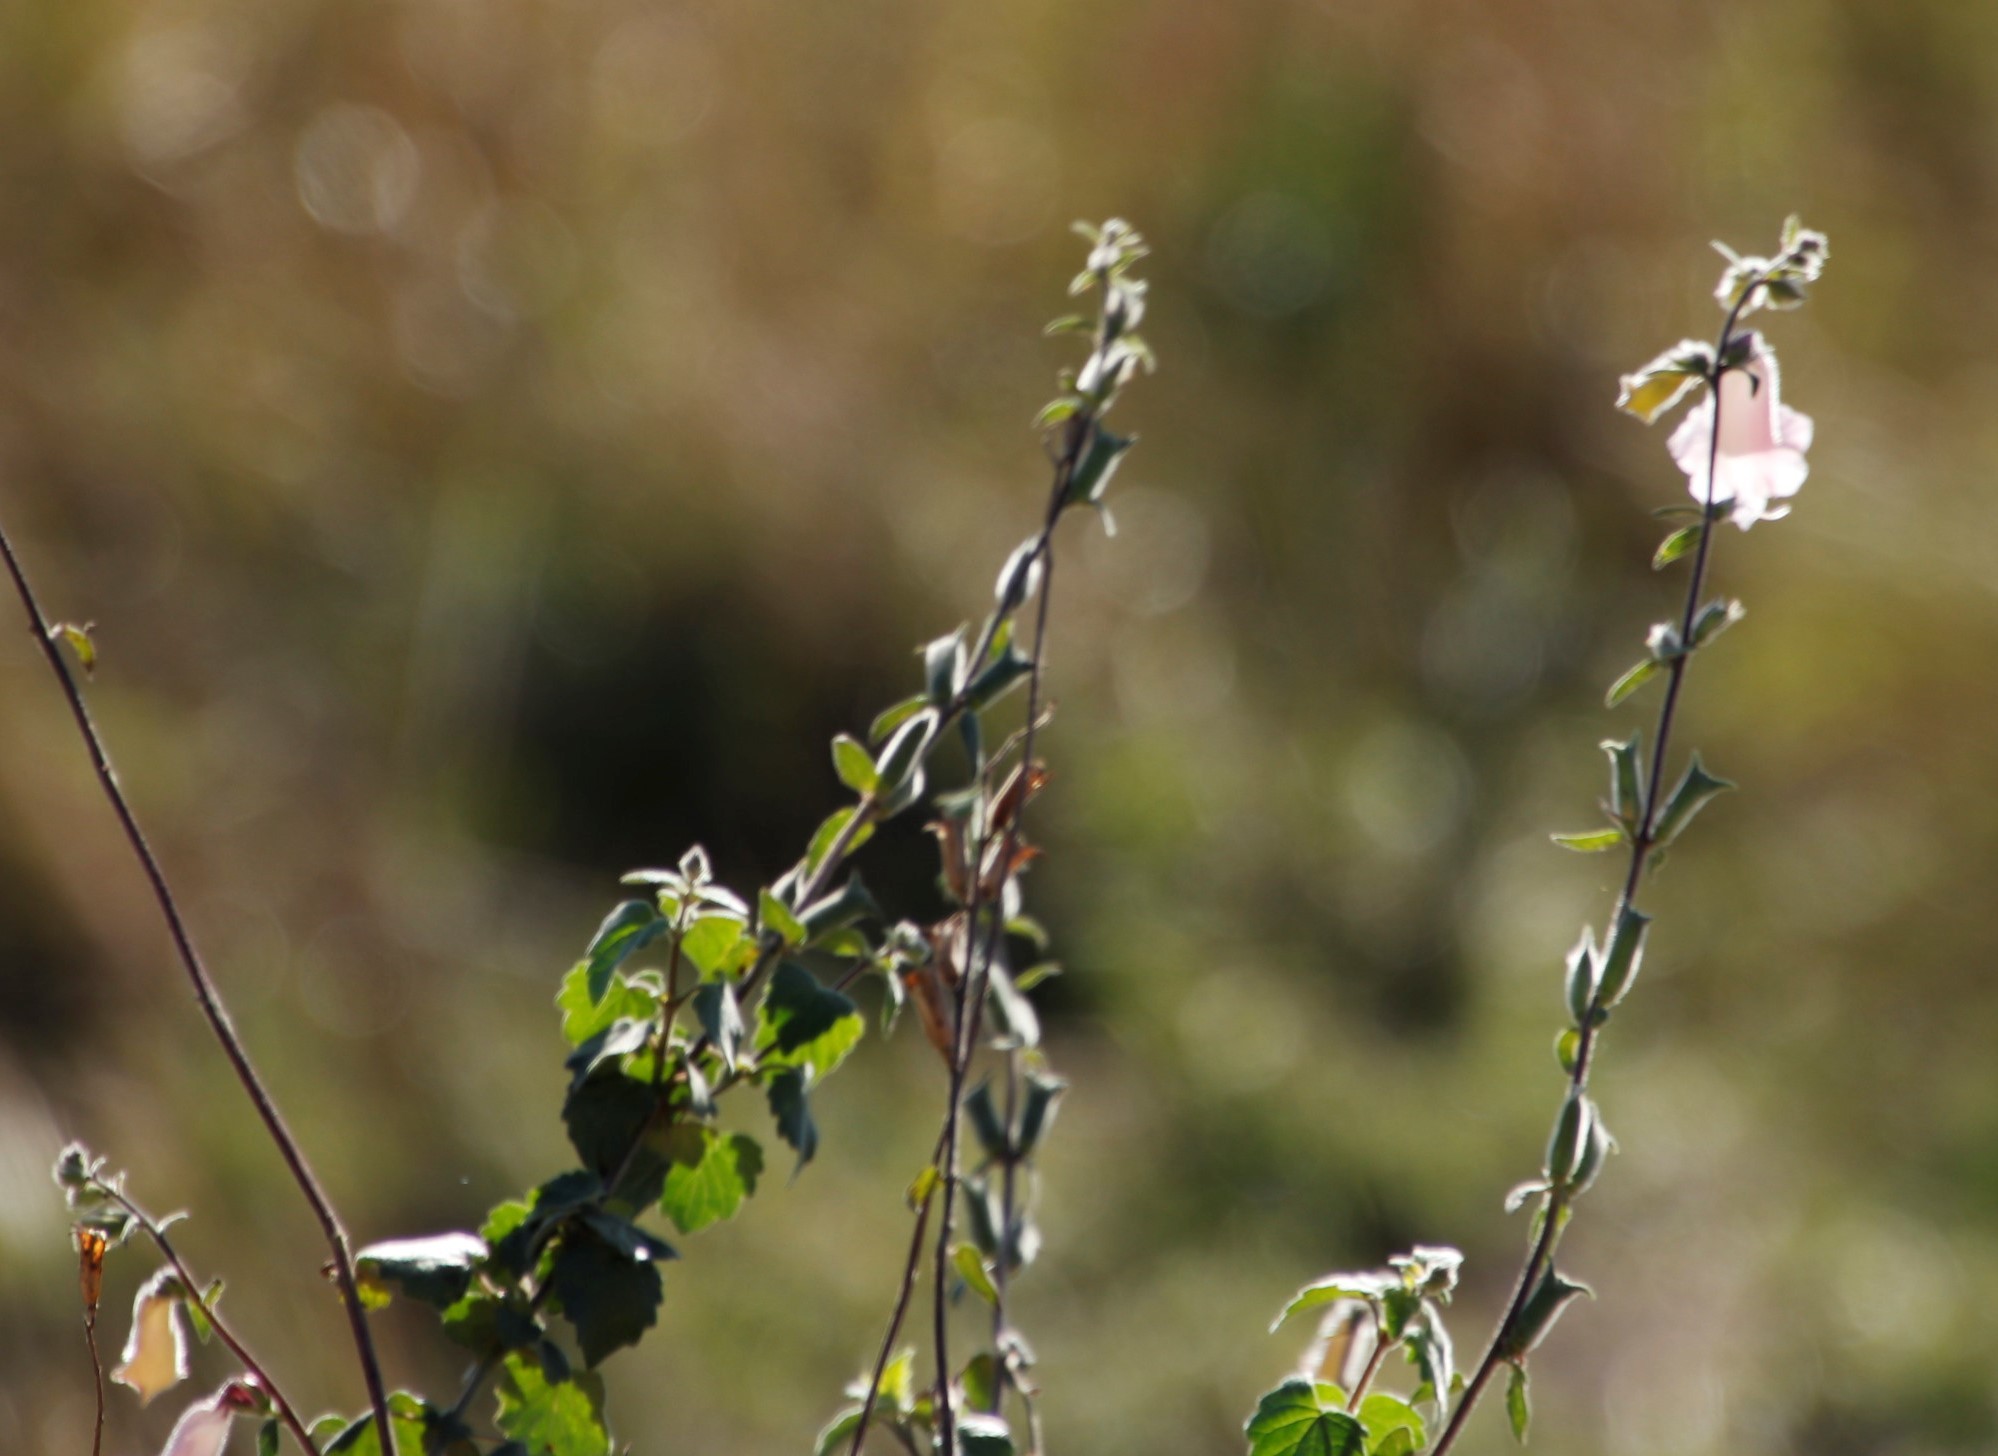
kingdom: Plantae
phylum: Tracheophyta
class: Magnoliopsida
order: Lamiales
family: Pedaliaceae
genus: Sesamum
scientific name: Sesamum trilobum
